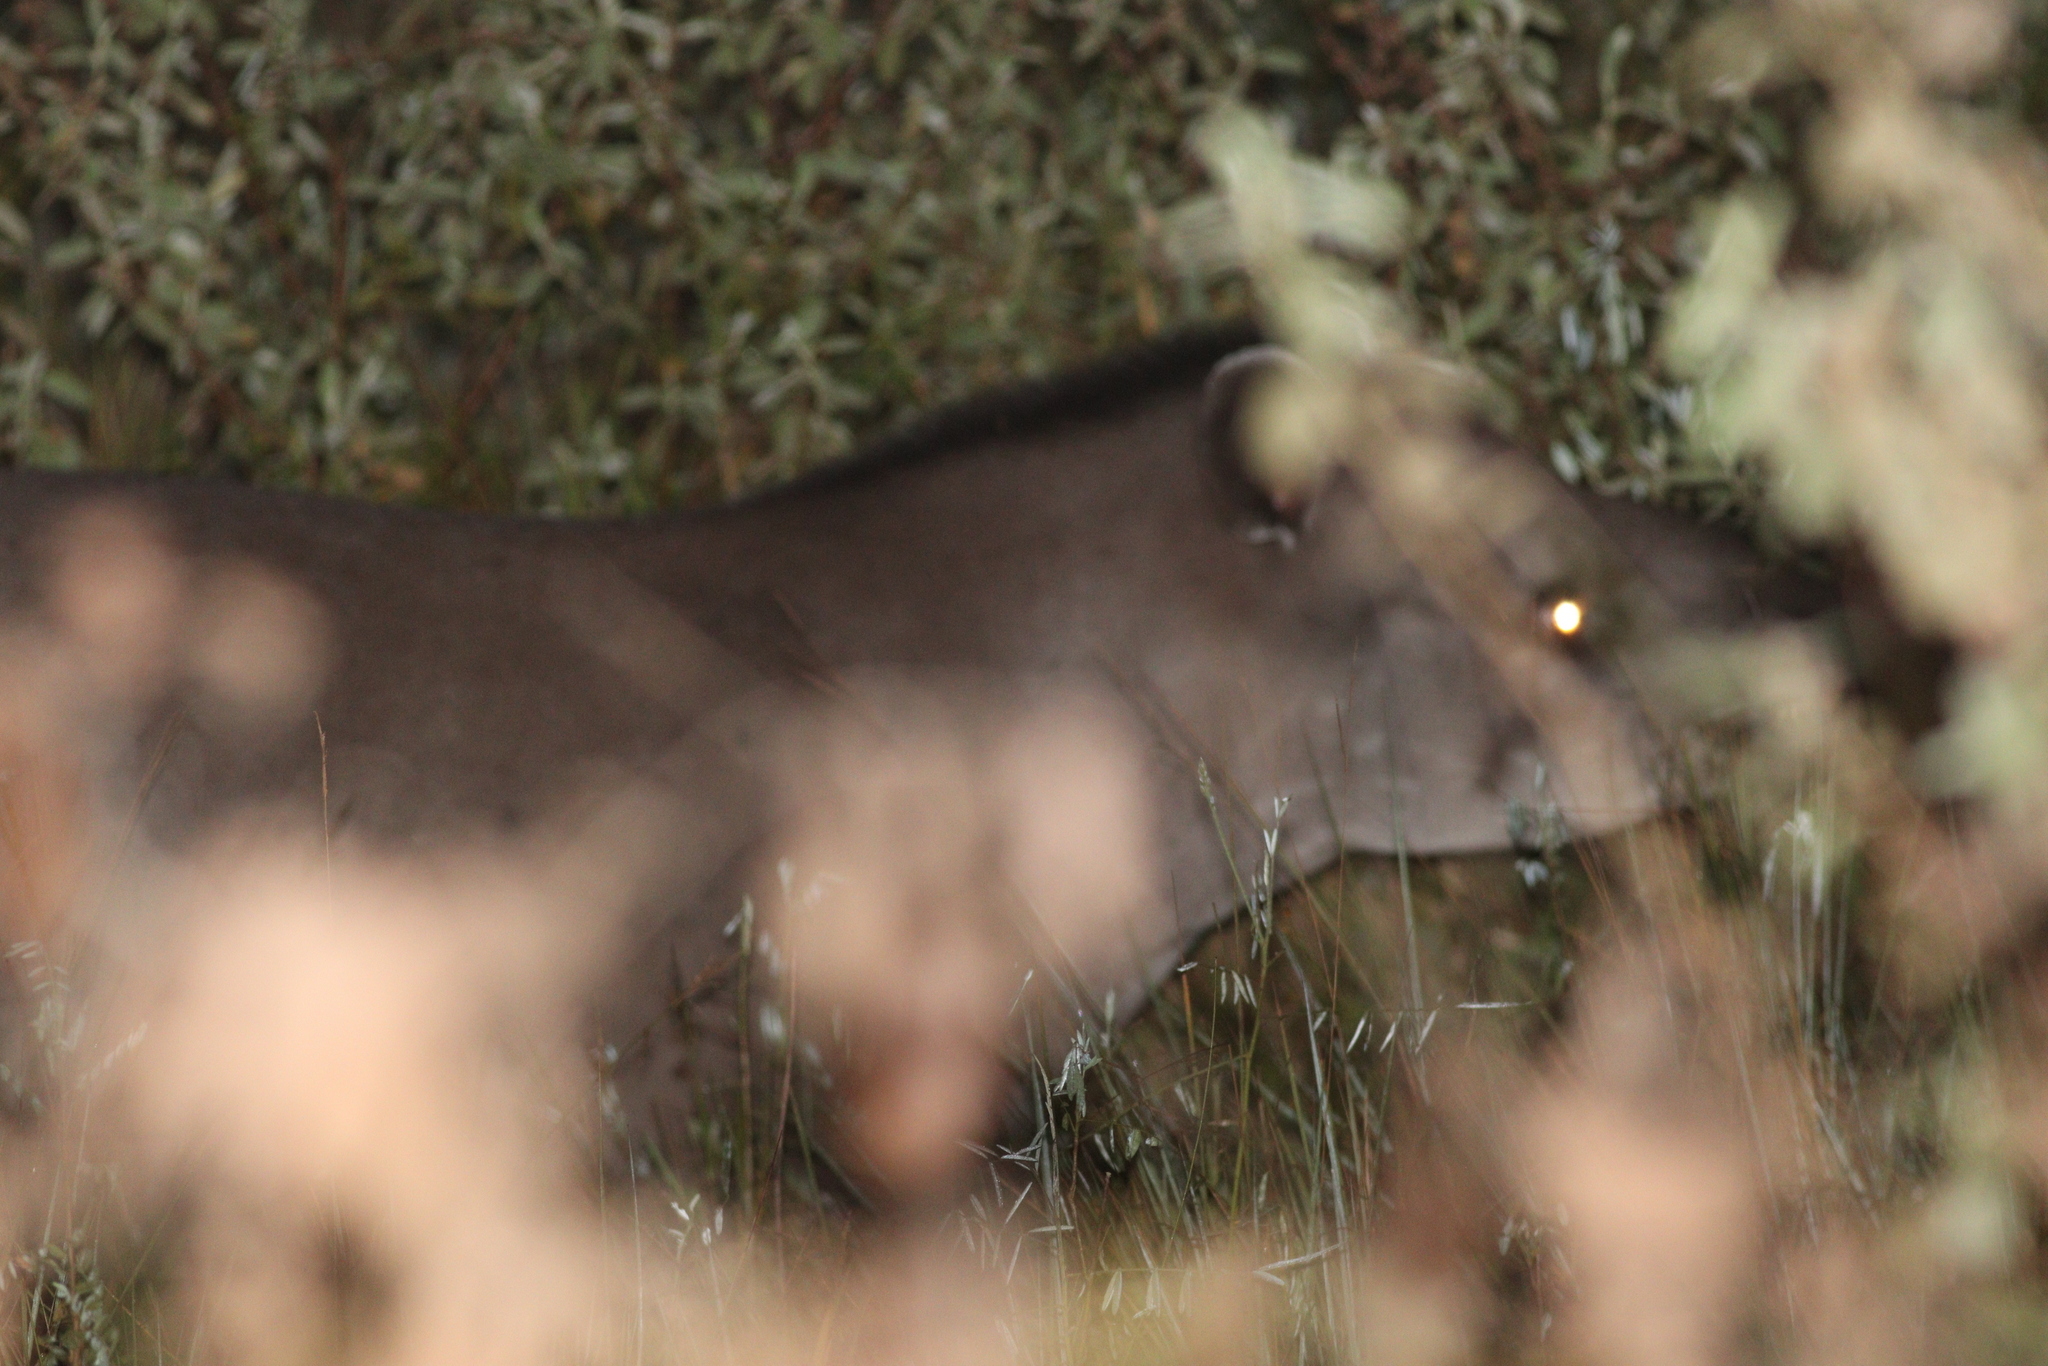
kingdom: Animalia
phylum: Chordata
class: Mammalia
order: Perissodactyla
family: Tapiridae
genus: Tapirus
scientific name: Tapirus terrestris
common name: Brazilian tapir
